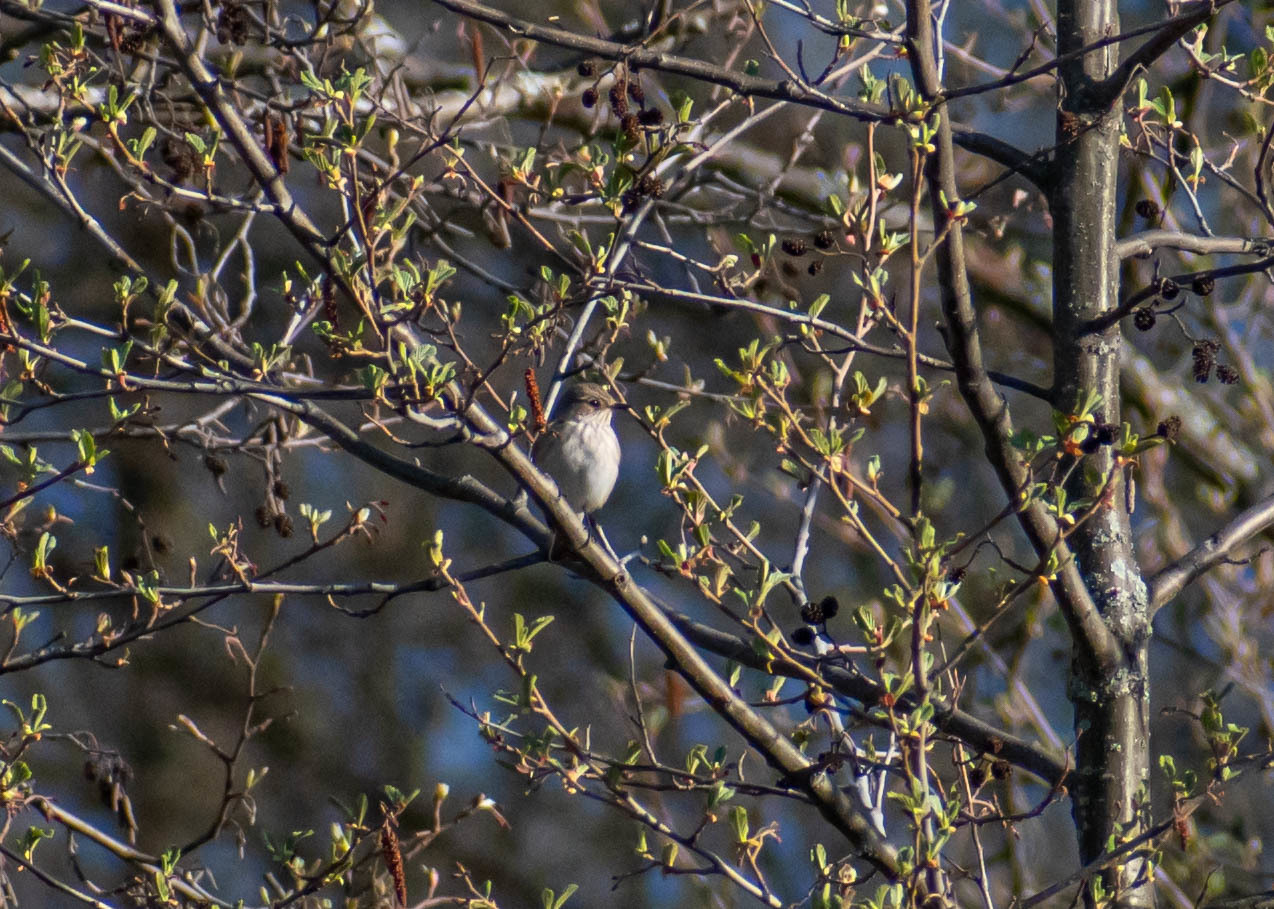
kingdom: Animalia
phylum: Chordata
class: Aves
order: Passeriformes
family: Muscicapidae
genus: Muscicapa
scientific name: Muscicapa striata
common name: Spotted flycatcher
